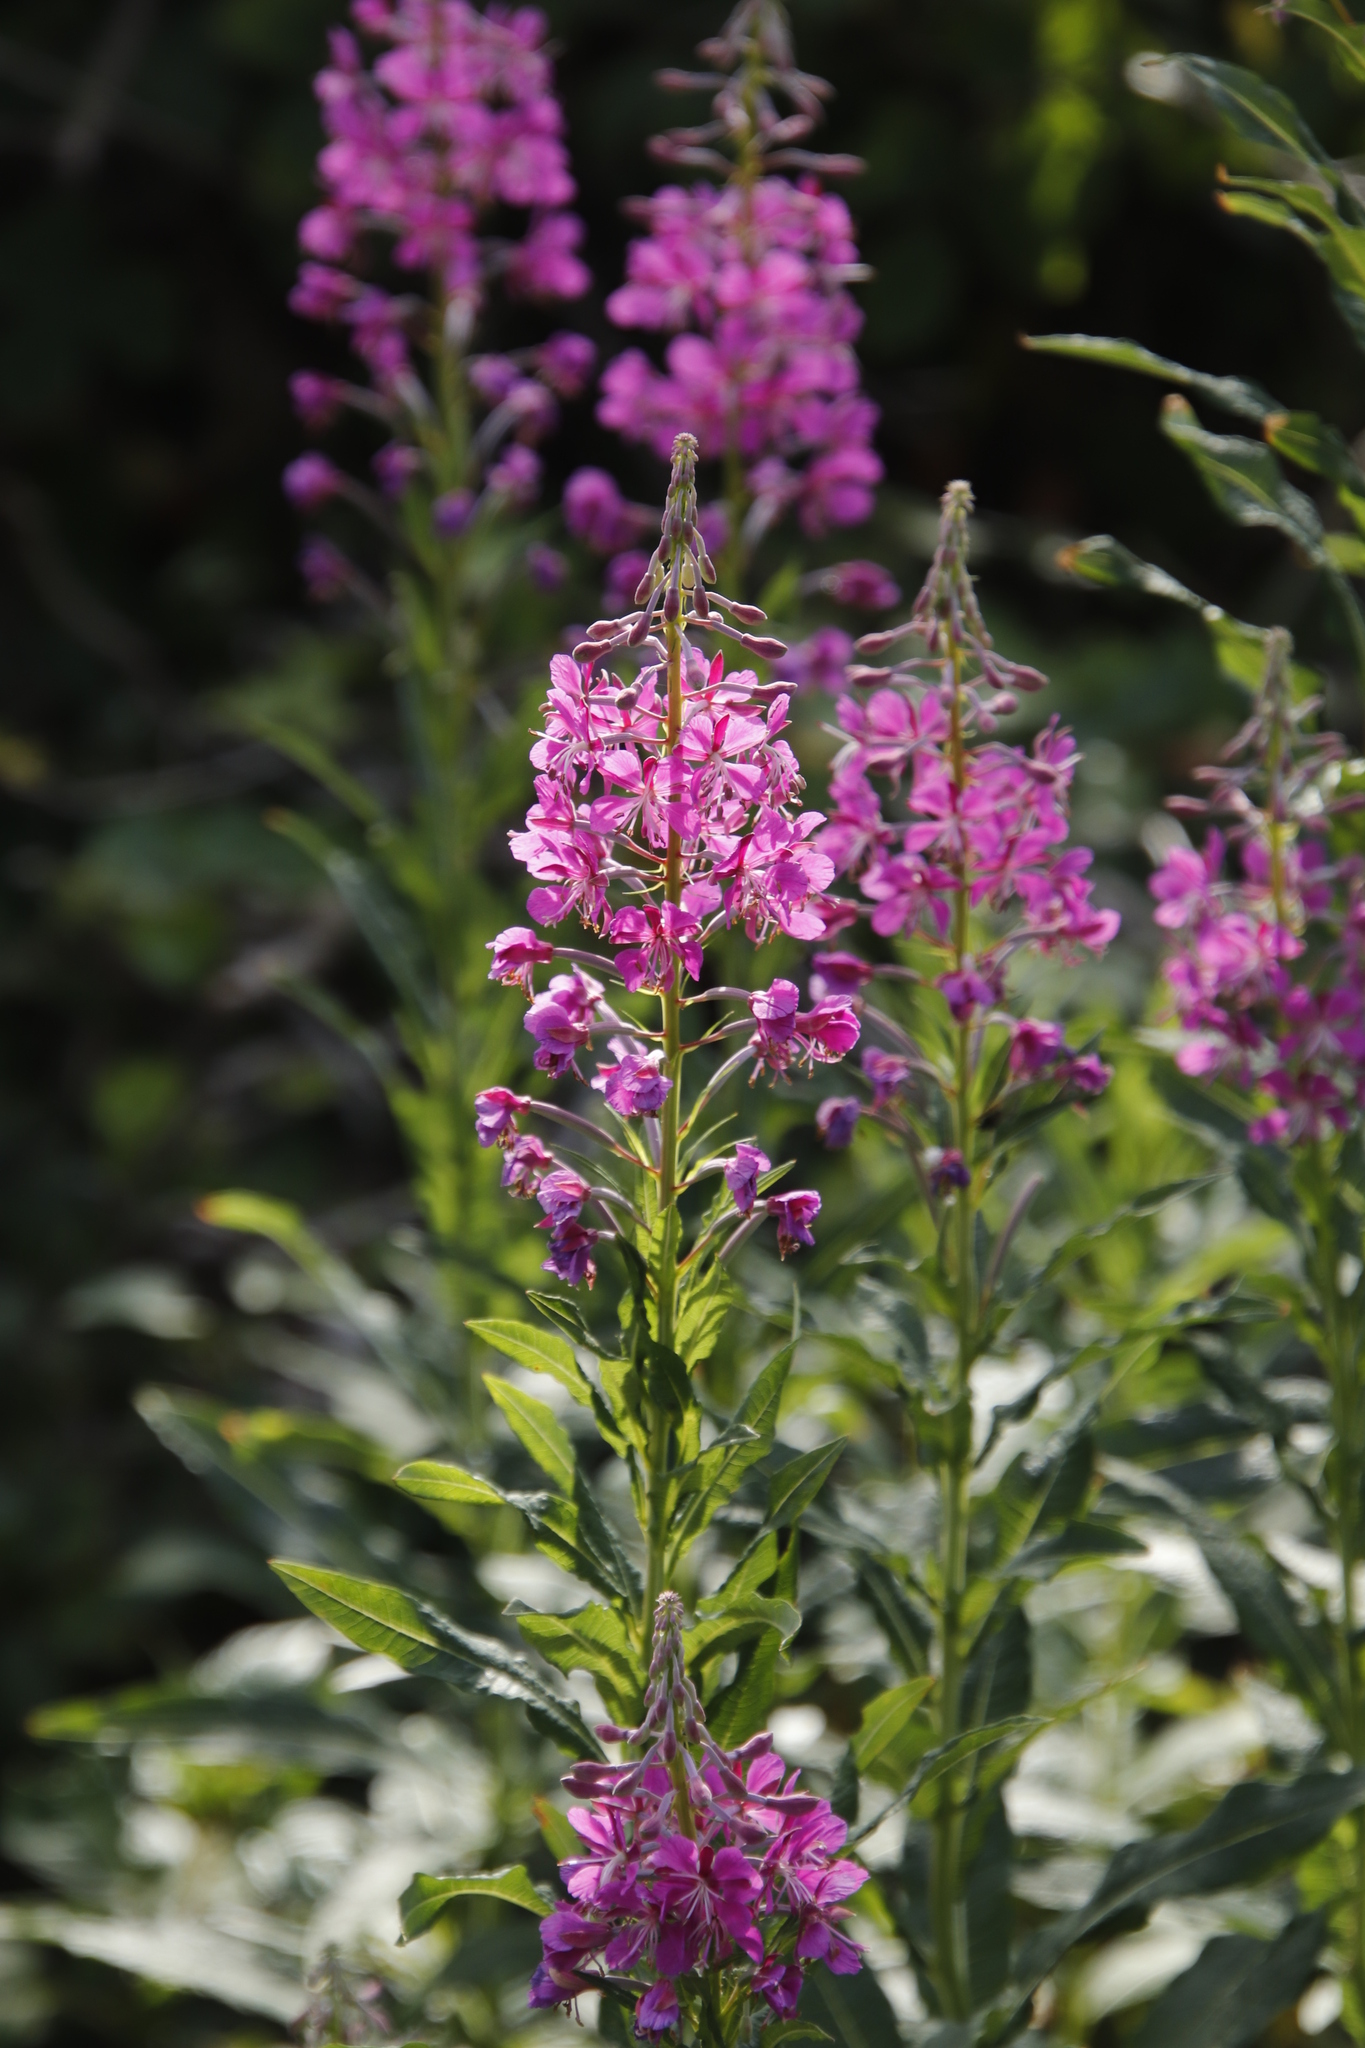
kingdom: Plantae
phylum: Tracheophyta
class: Magnoliopsida
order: Myrtales
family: Onagraceae
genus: Chamaenerion
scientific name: Chamaenerion angustifolium
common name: Fireweed
